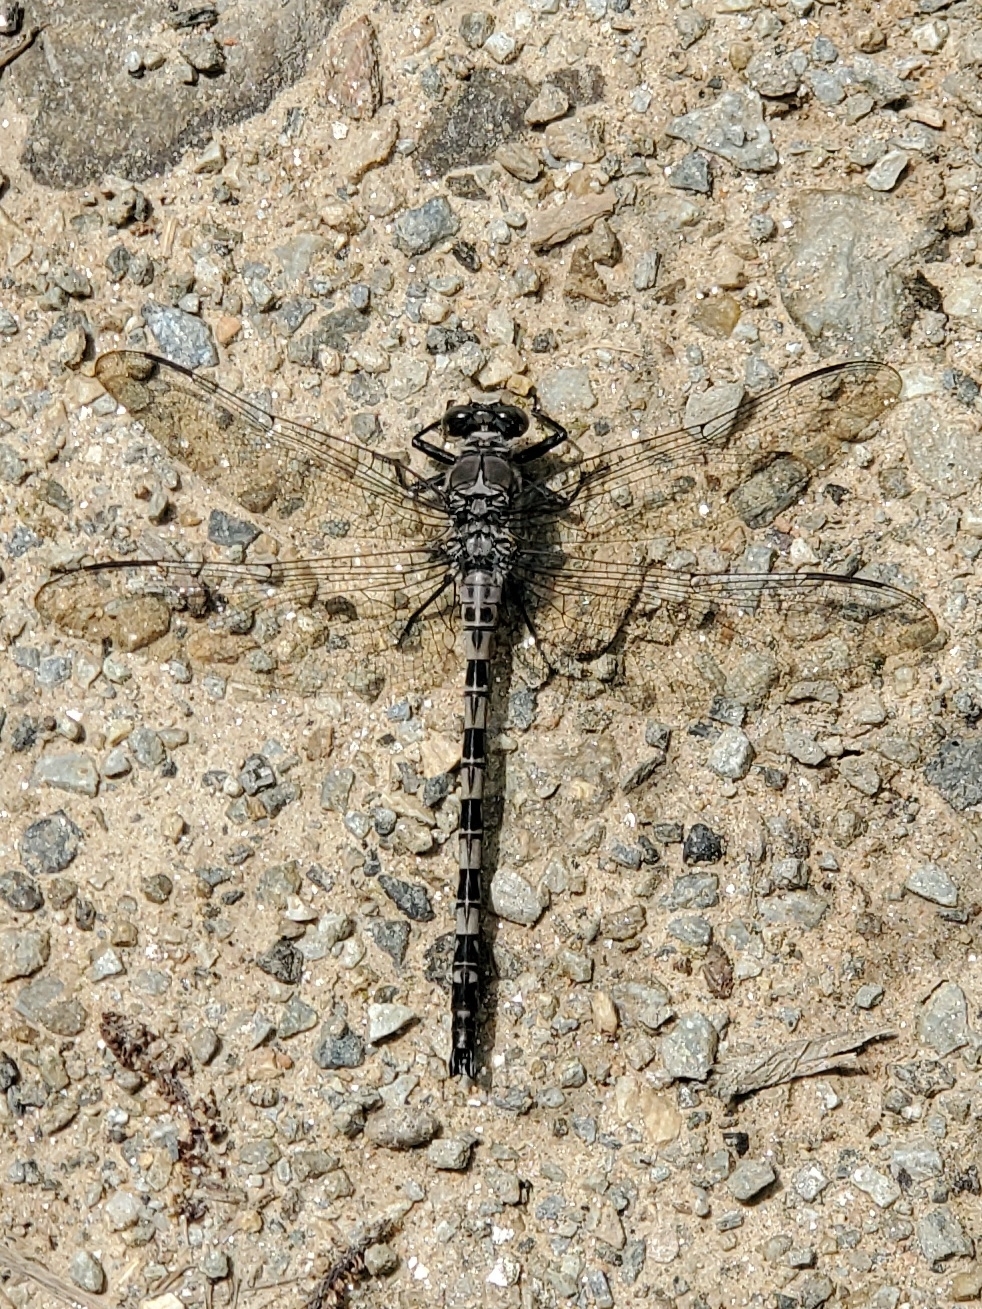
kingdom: Animalia
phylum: Arthropoda
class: Insecta
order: Odonata
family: Petaluridae
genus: Tachopteryx
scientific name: Tachopteryx thoreyi
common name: Gray petaltail
